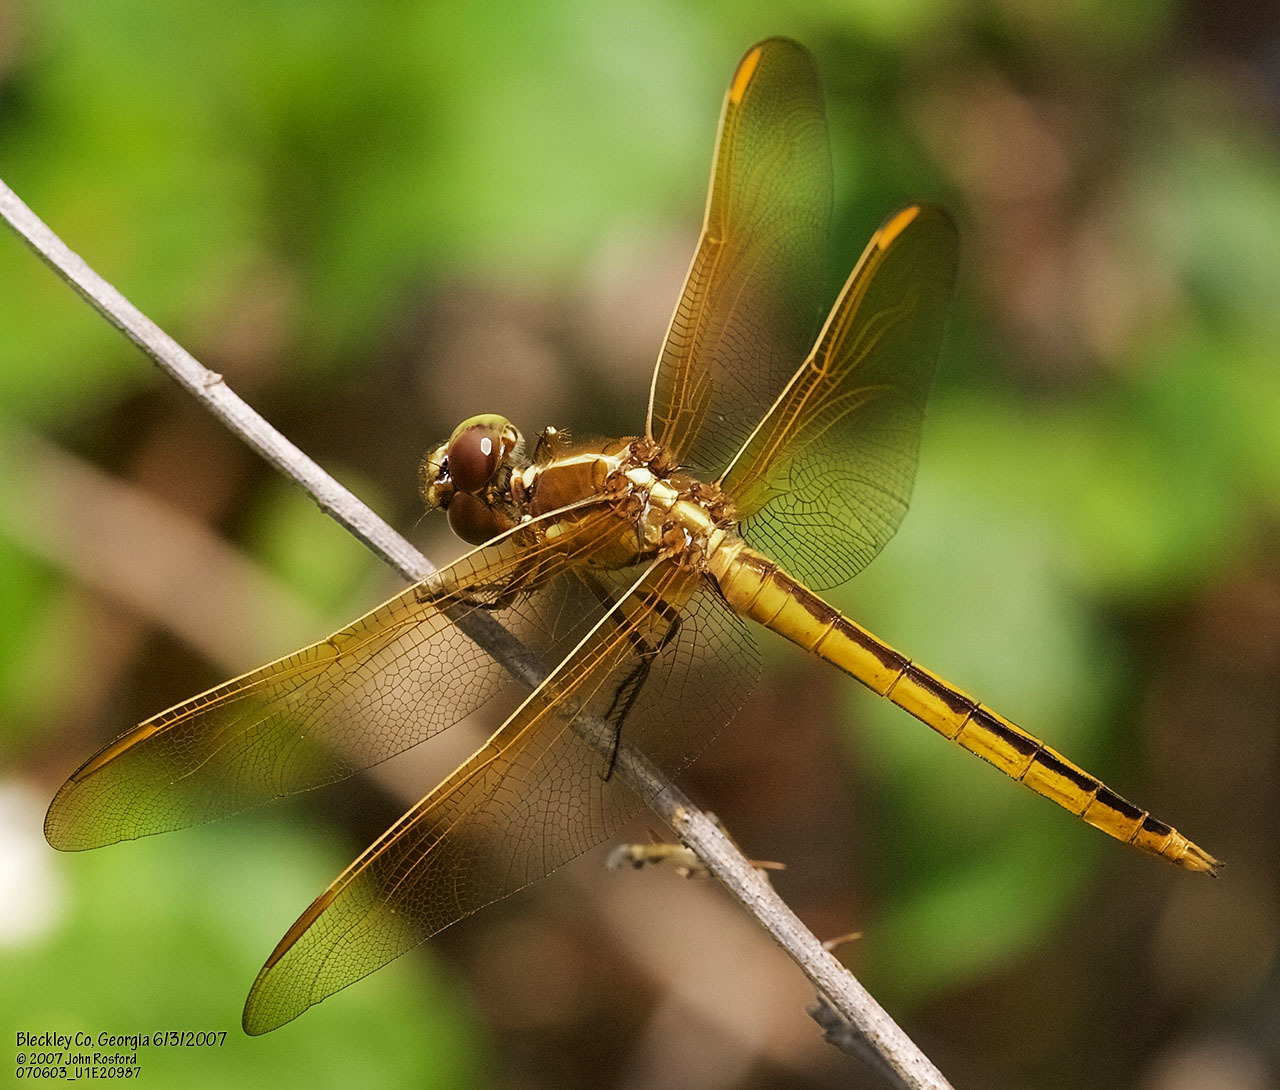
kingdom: Animalia
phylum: Arthropoda
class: Insecta
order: Odonata
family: Libellulidae
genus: Libellula
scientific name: Libellula auripennis
